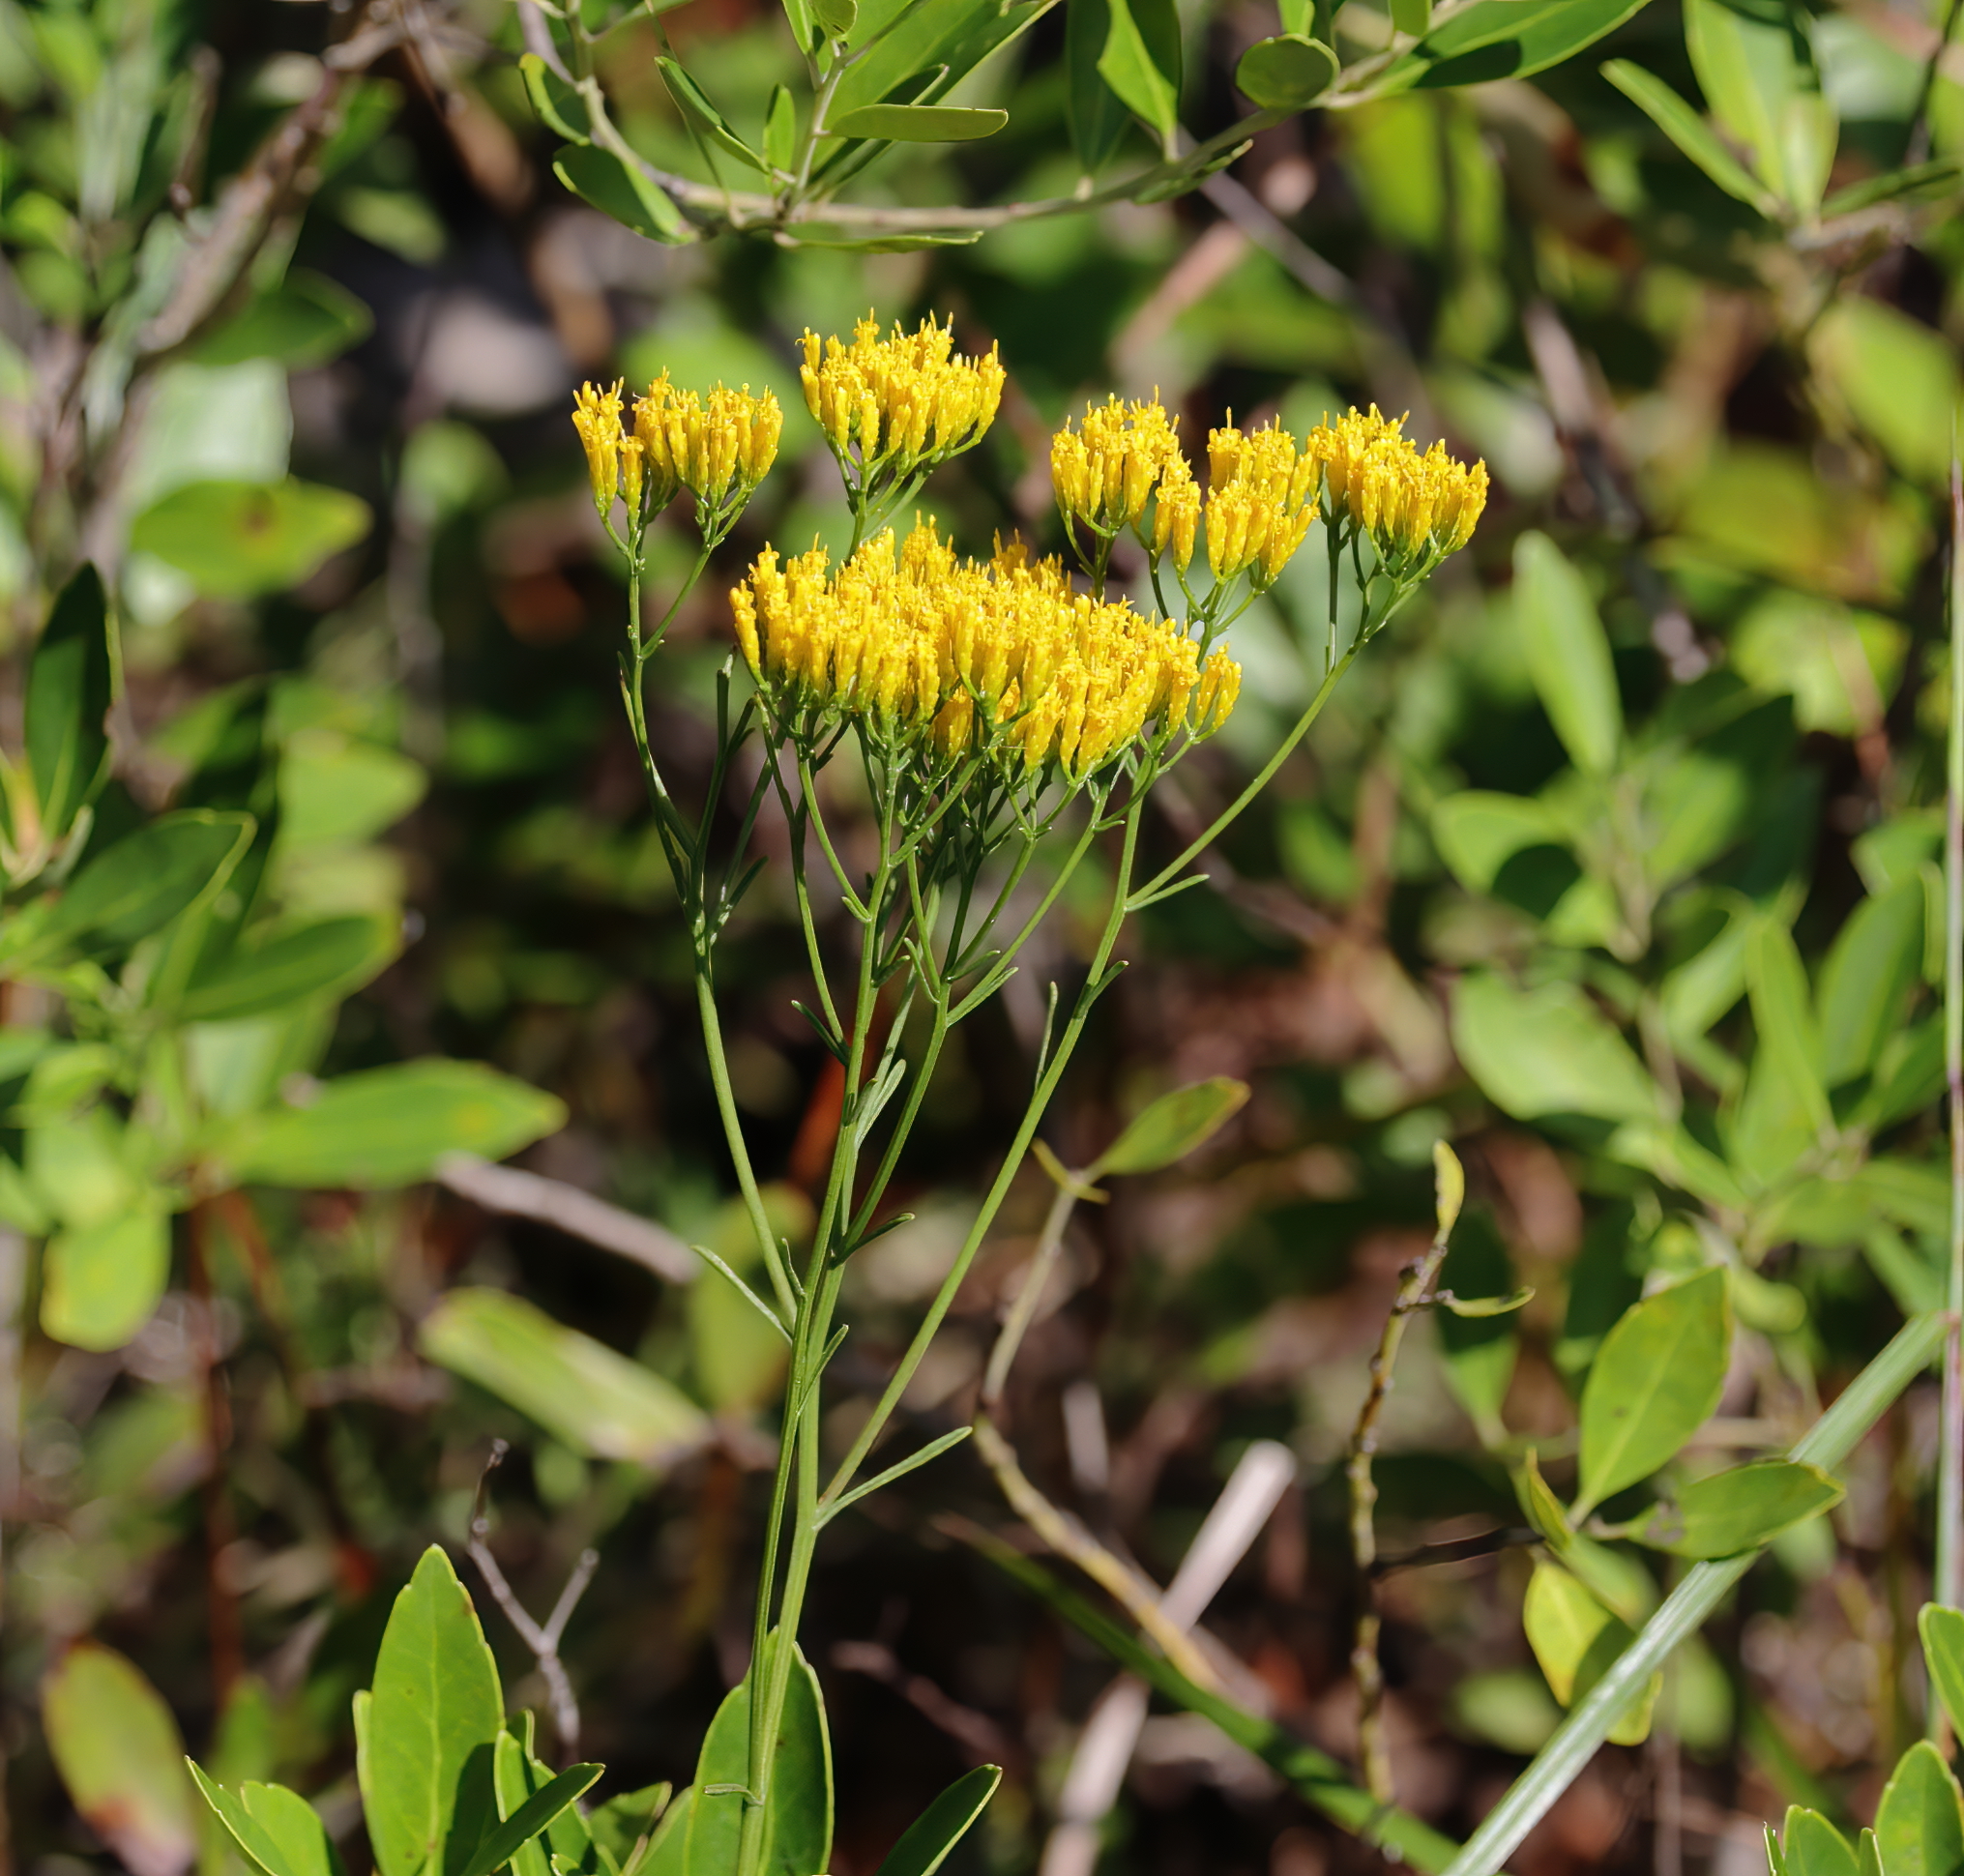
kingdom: Plantae
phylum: Tracheophyta
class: Magnoliopsida
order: Asterales
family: Asteraceae
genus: Bigelowia
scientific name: Bigelowia nudata
